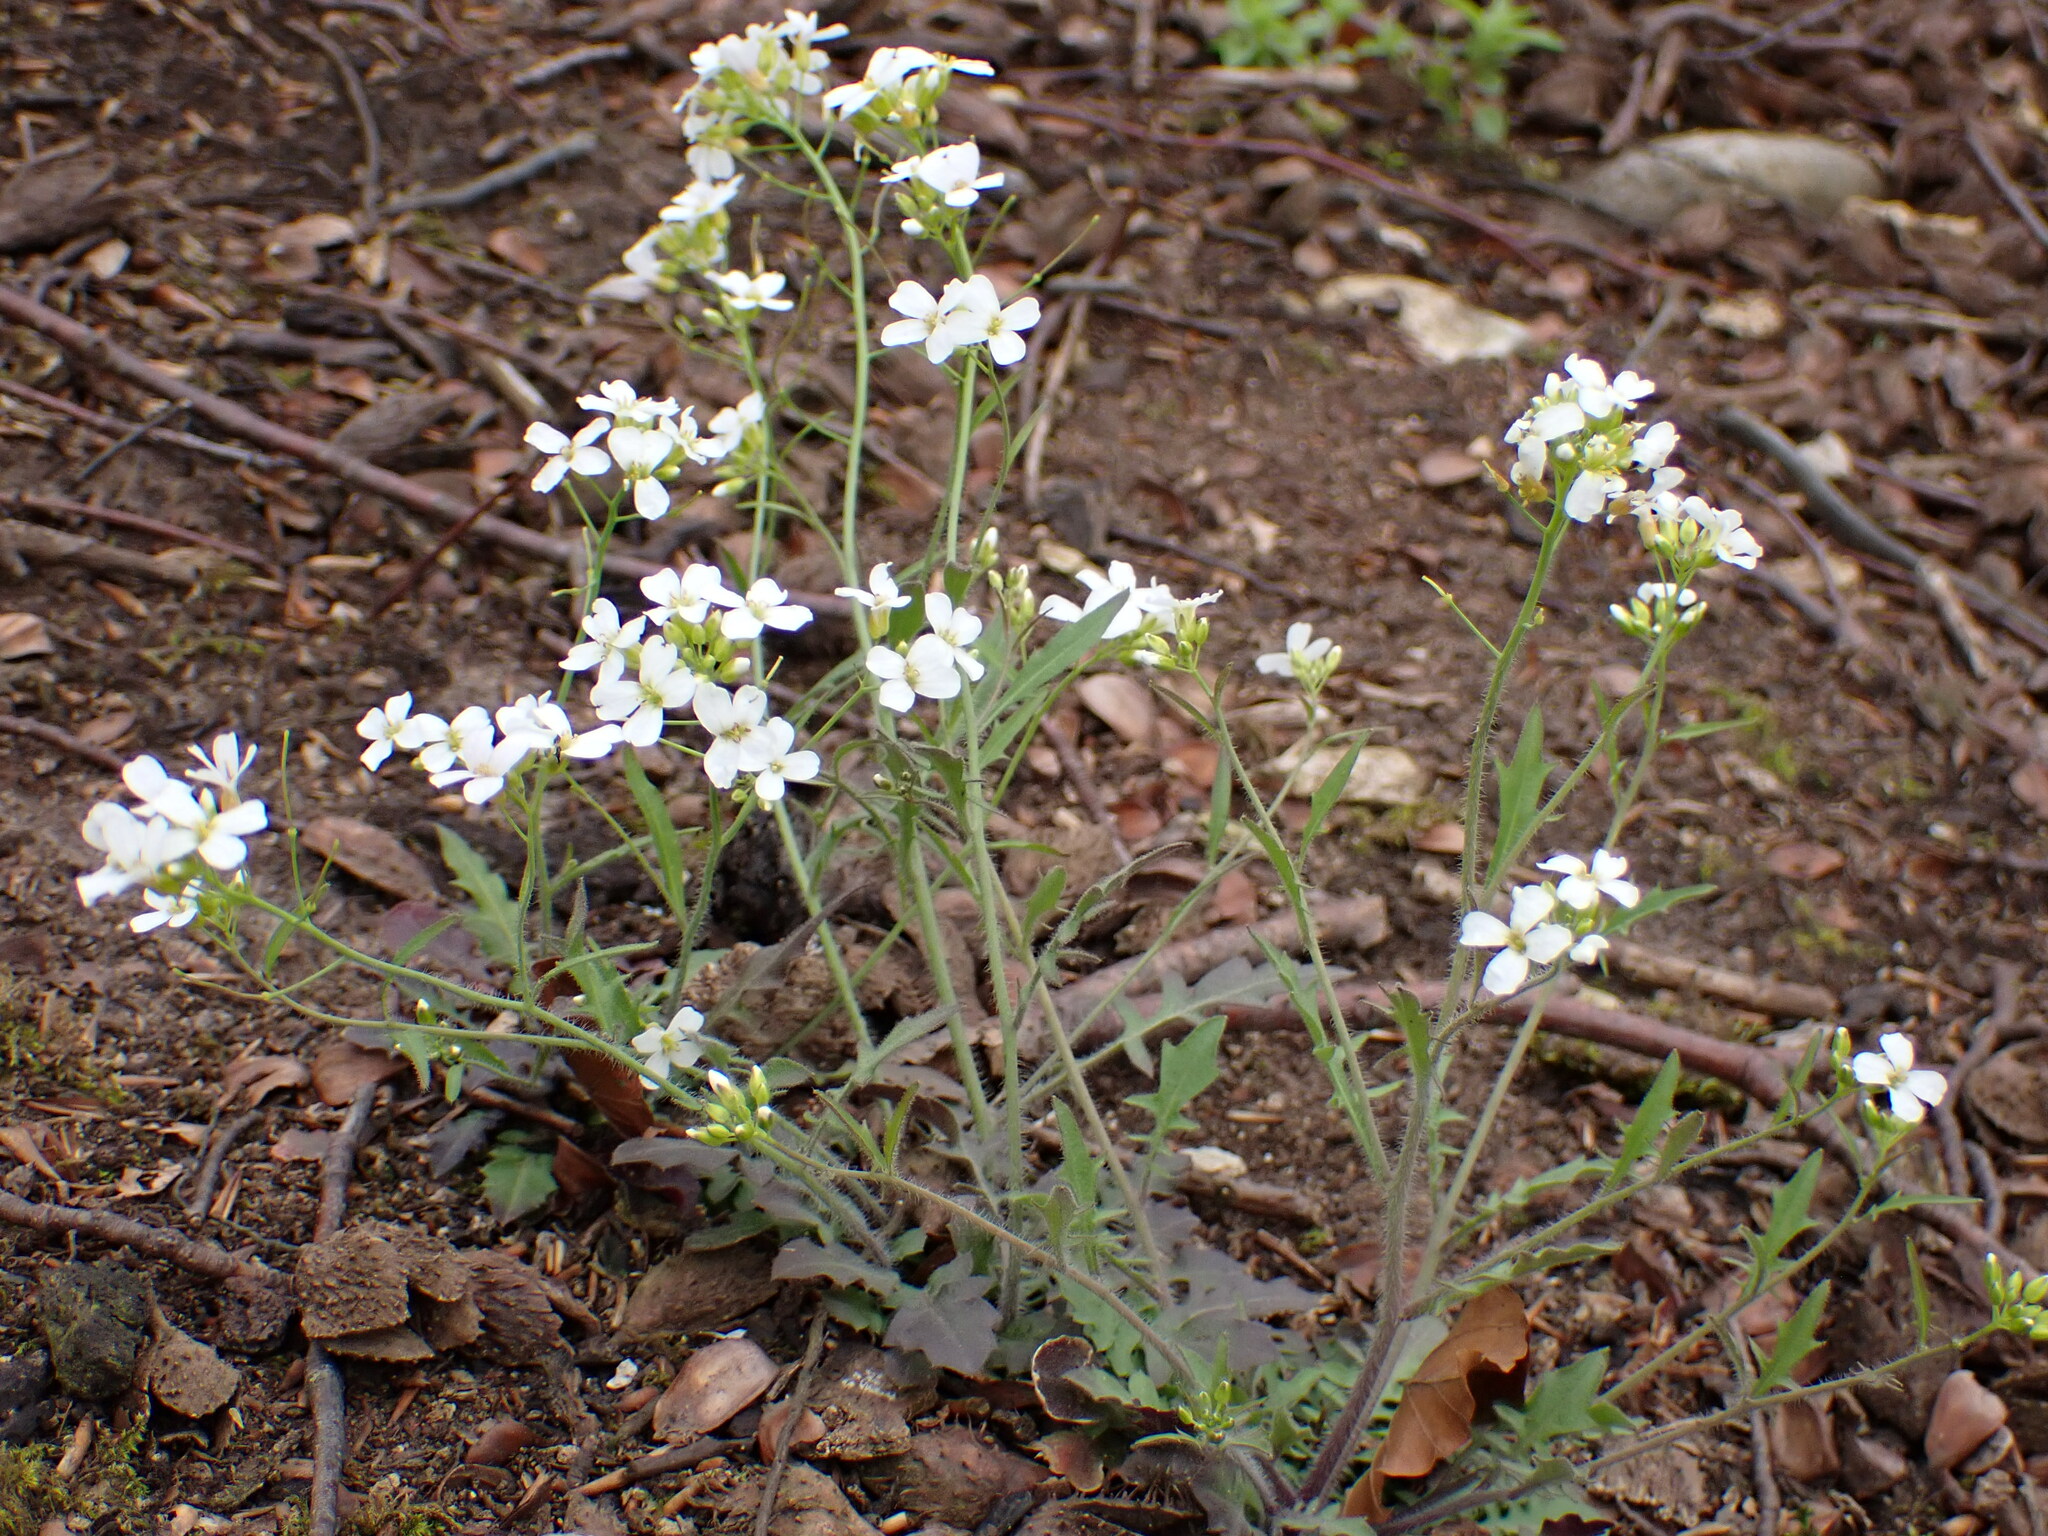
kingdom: Plantae
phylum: Tracheophyta
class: Magnoliopsida
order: Brassicales
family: Brassicaceae
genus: Arabidopsis
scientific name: Arabidopsis arenosa
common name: Sand rock-cress
